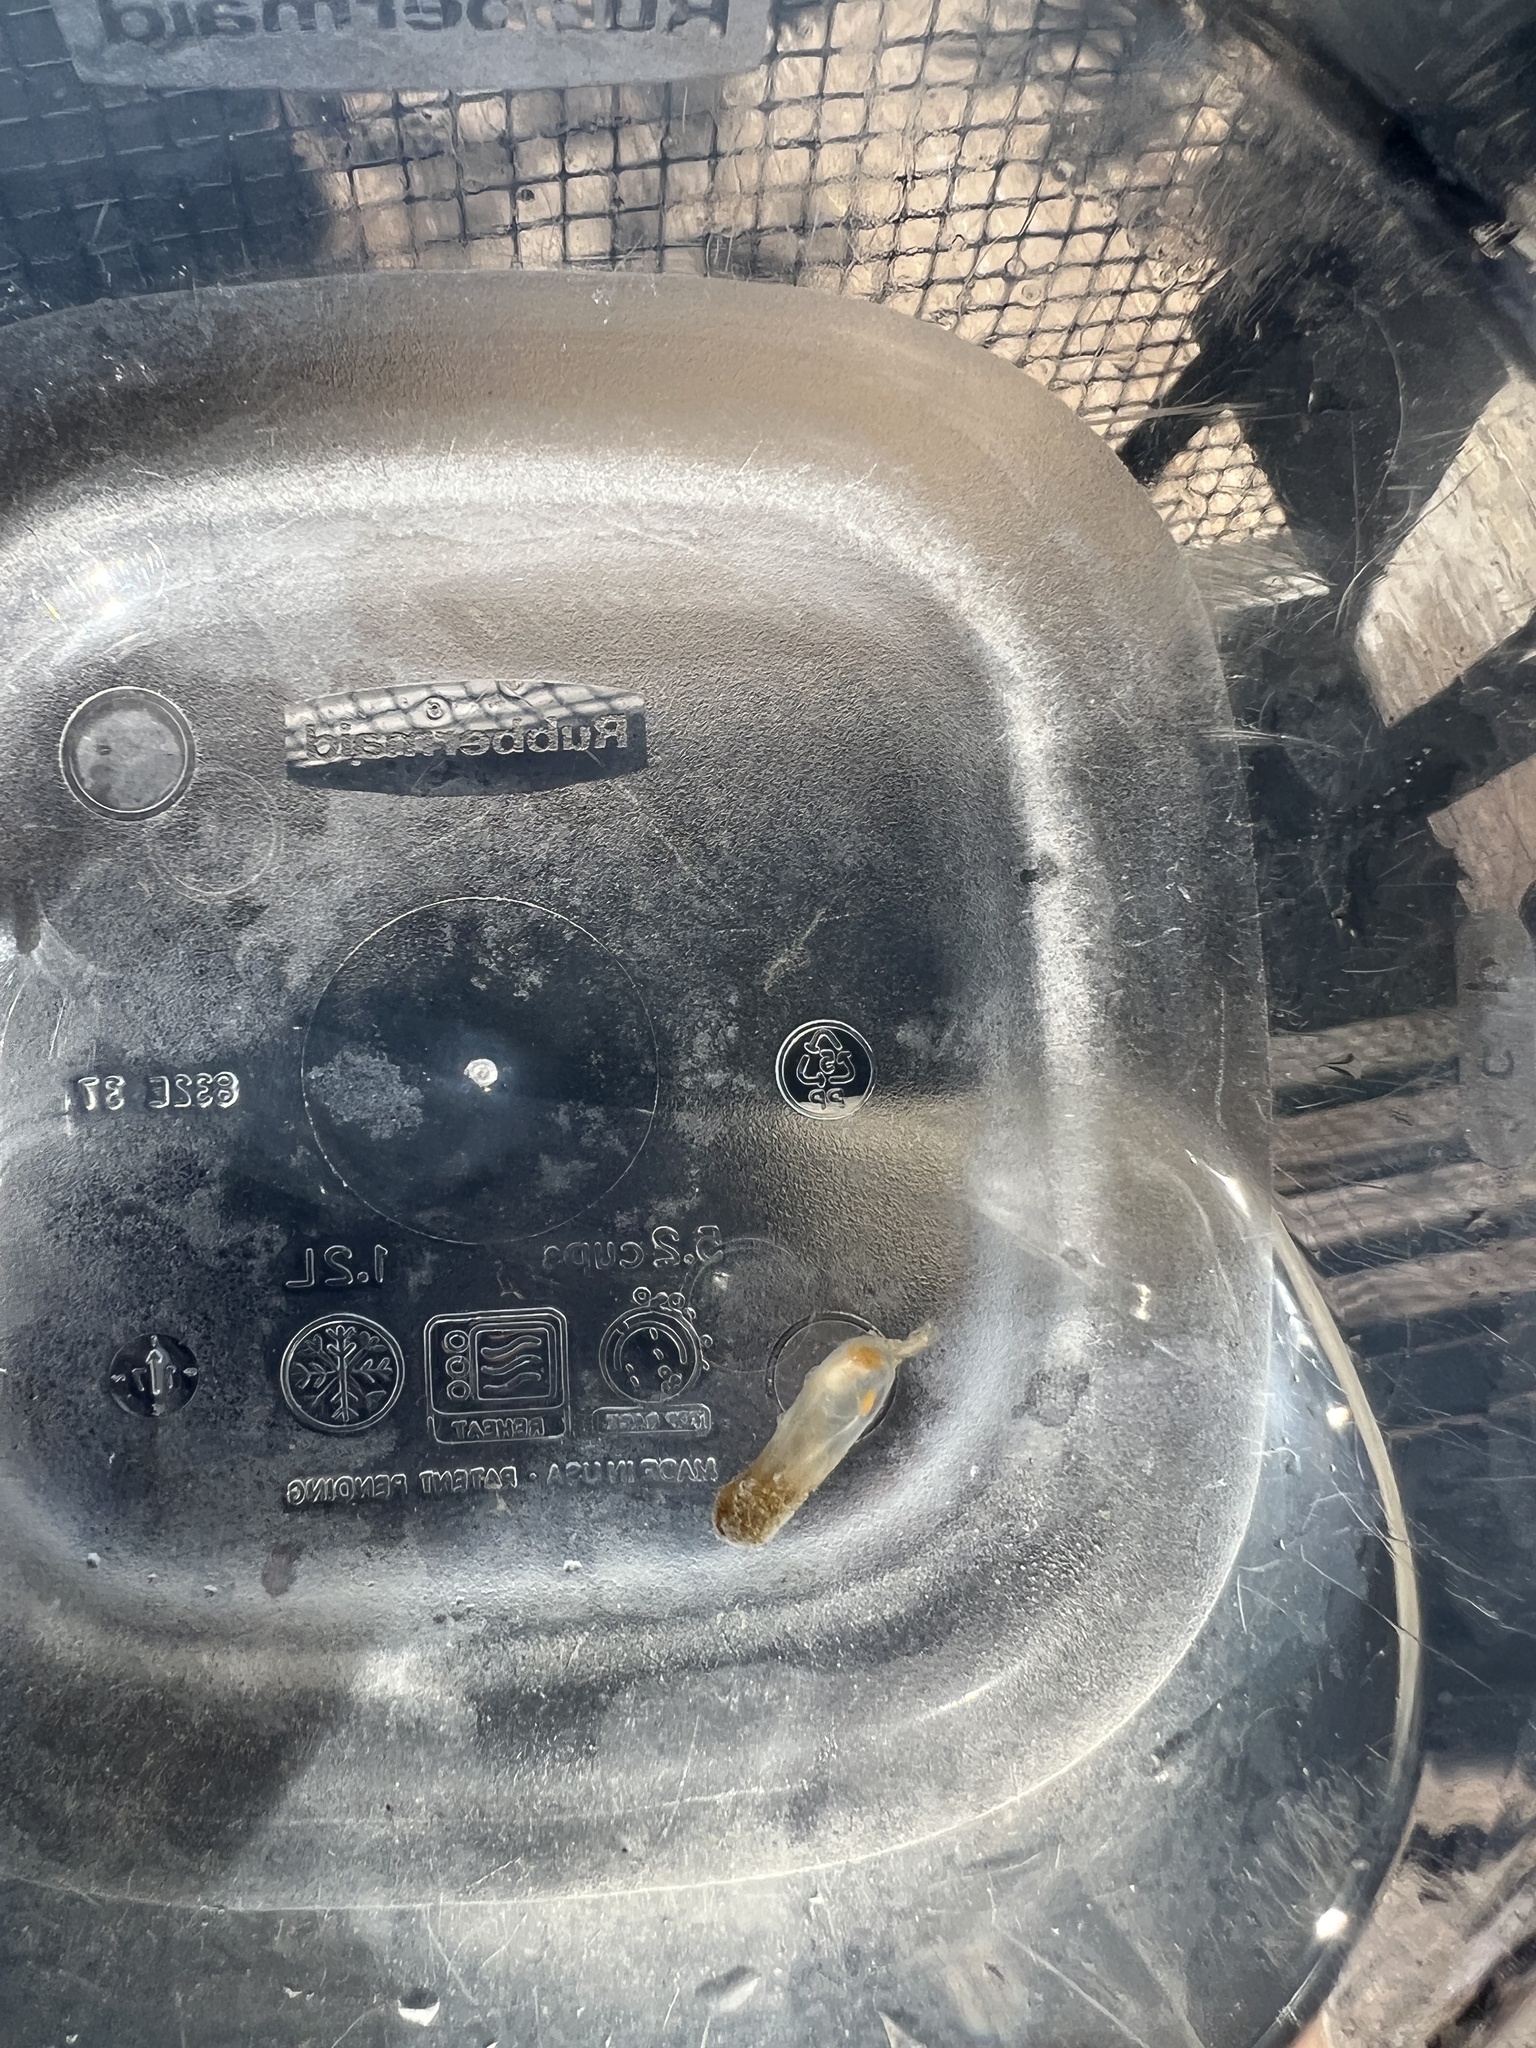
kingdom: Animalia
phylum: Chordata
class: Ascidiacea
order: Phlebobranchia
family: Perophoridae
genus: Ecteinascidia
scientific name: Ecteinascidia turbinata
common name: Mangrove tunicate
